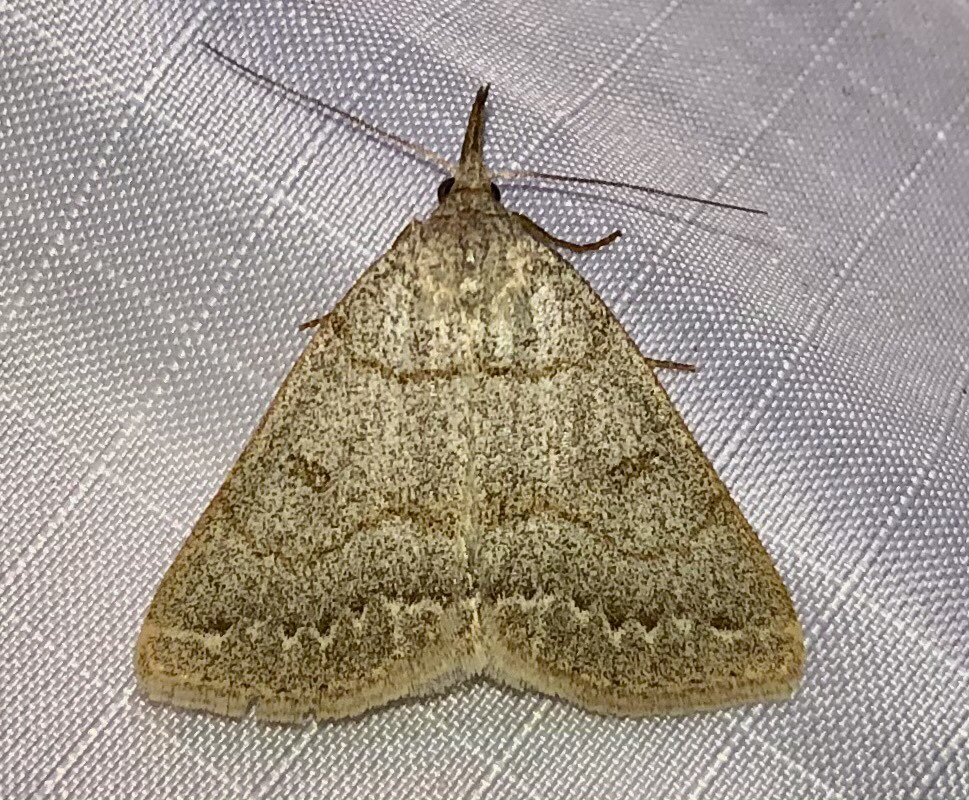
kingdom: Animalia
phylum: Arthropoda
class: Insecta
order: Lepidoptera
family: Erebidae
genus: Macrochilo
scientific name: Macrochilo morbidalis
